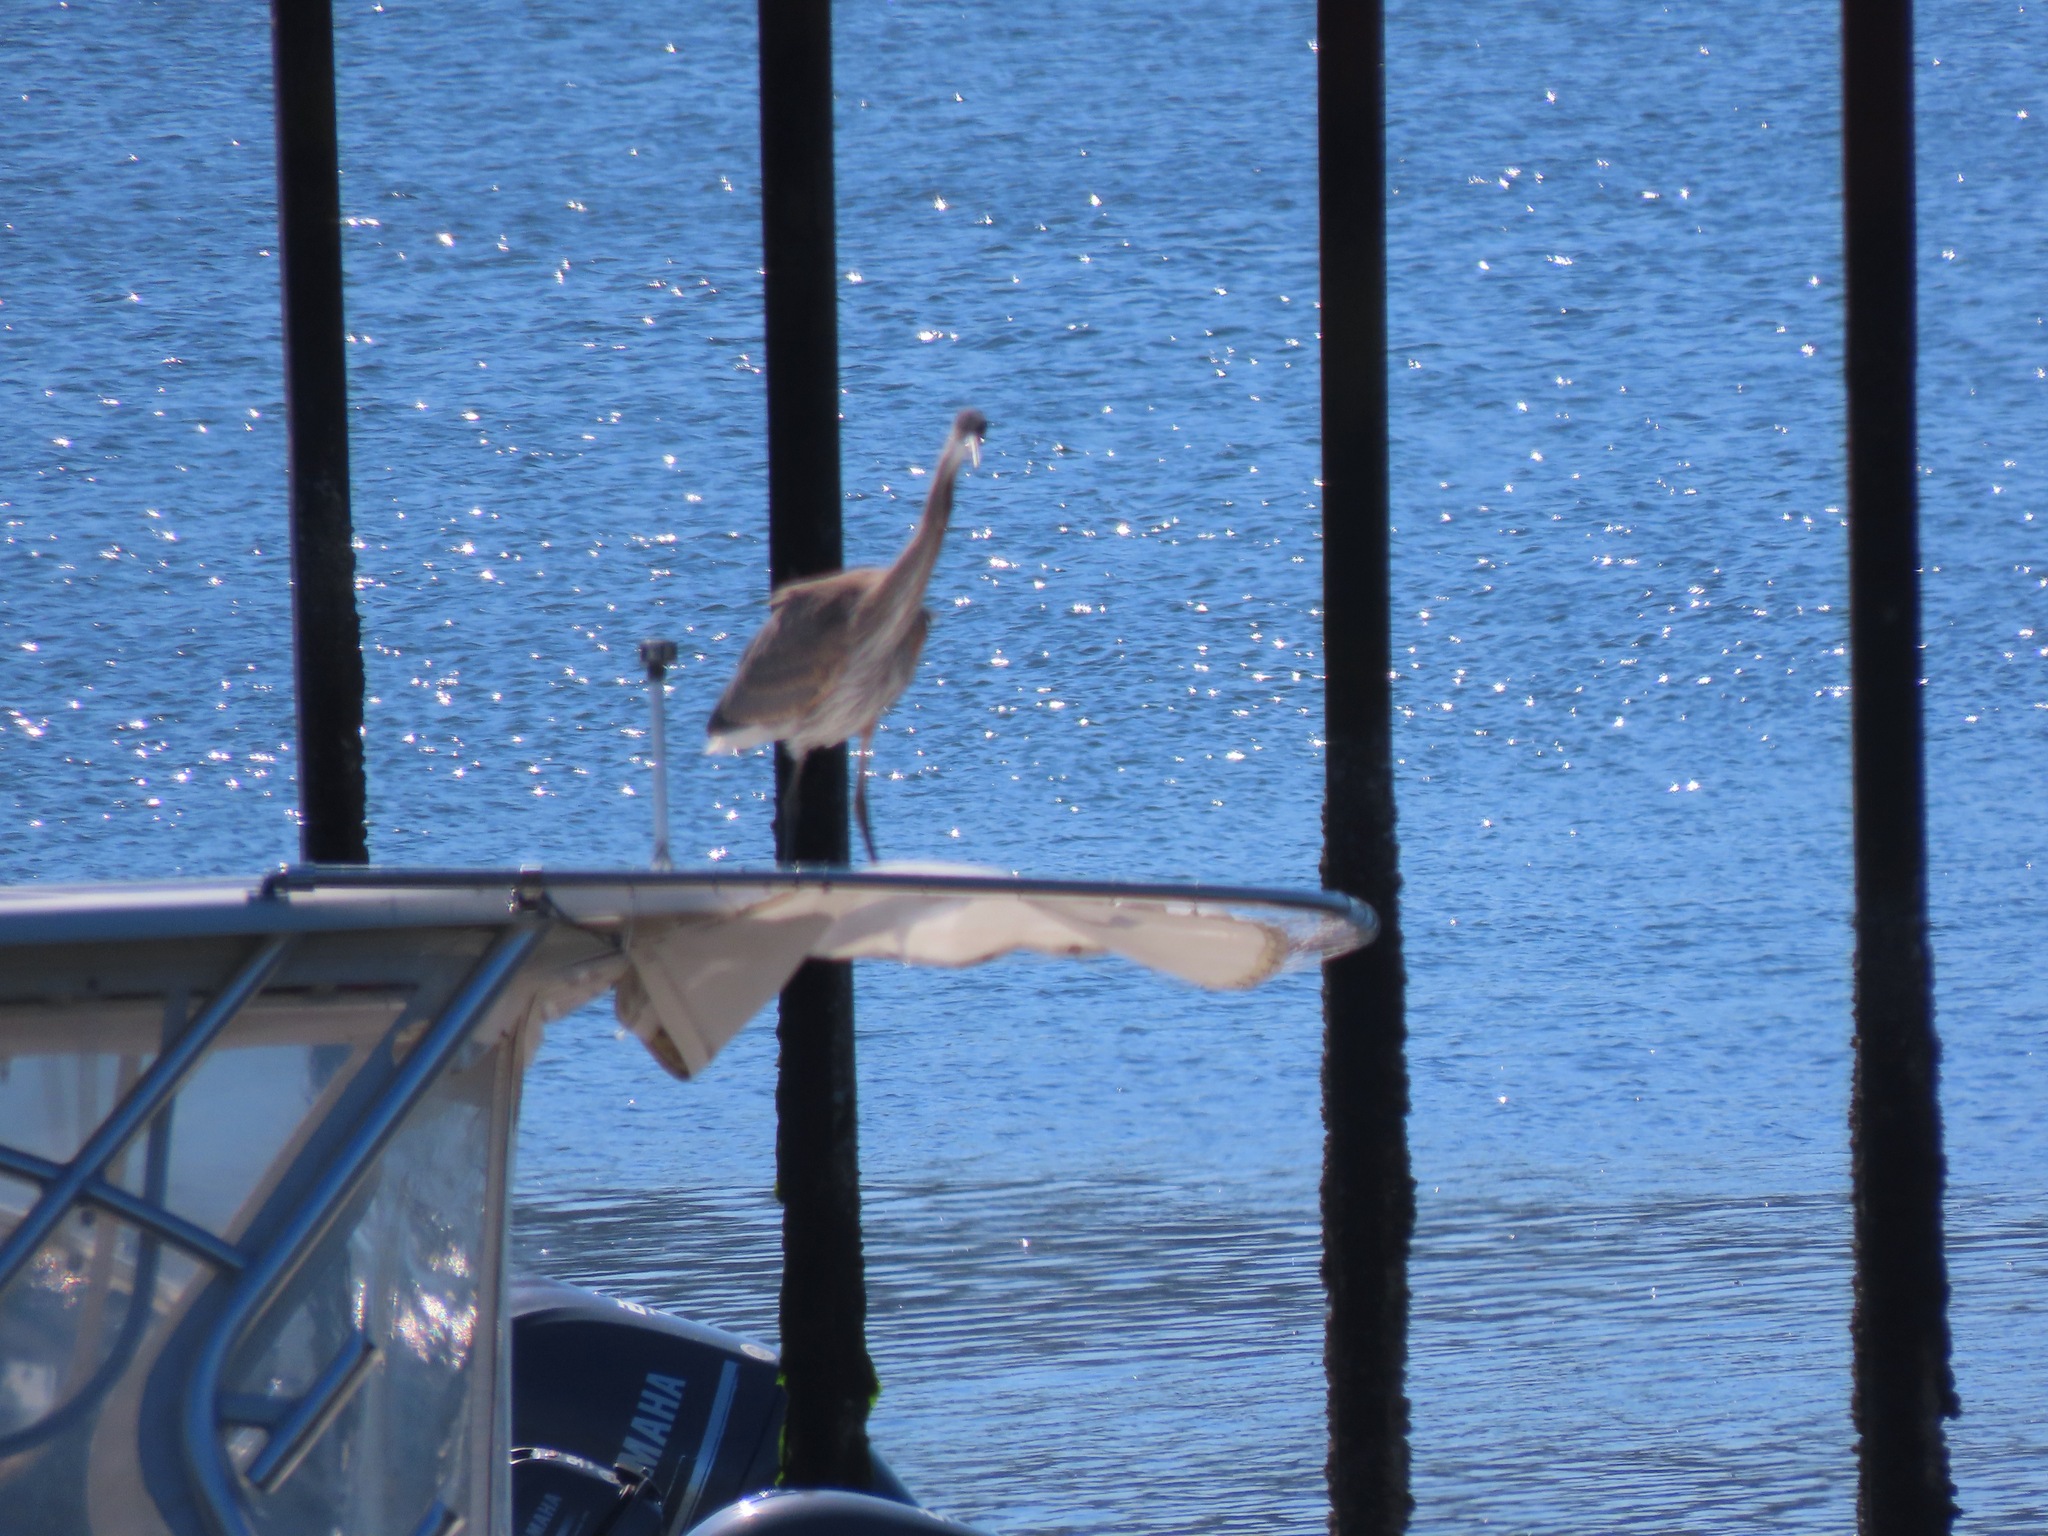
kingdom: Animalia
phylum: Chordata
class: Aves
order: Pelecaniformes
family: Ardeidae
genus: Ardea
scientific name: Ardea herodias
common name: Great blue heron
